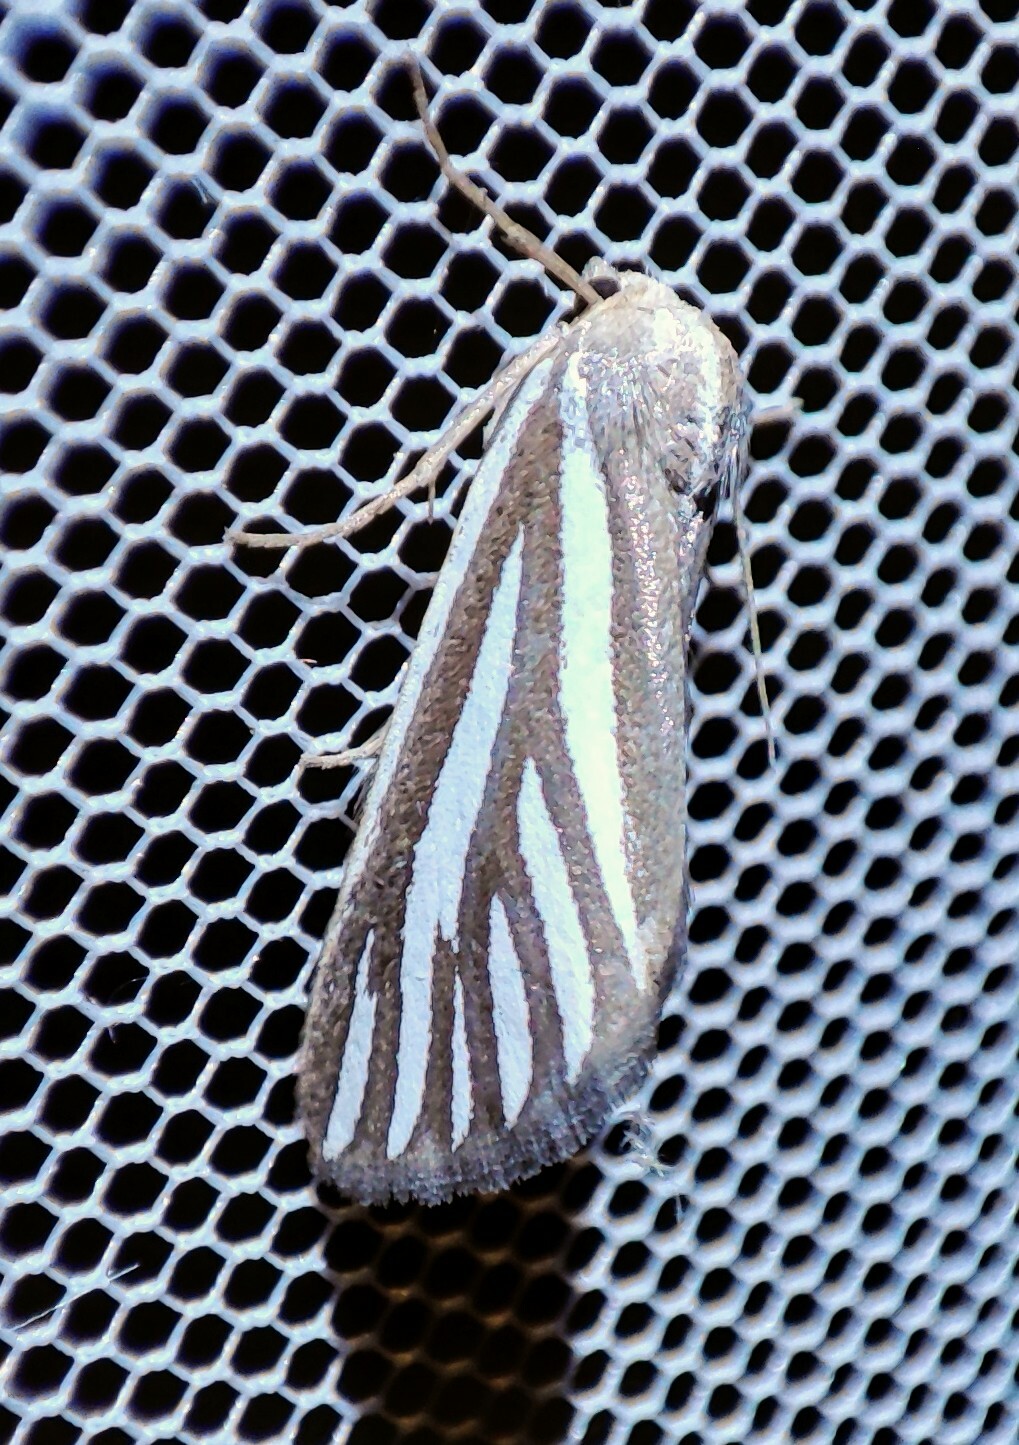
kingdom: Animalia
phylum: Arthropoda
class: Insecta
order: Lepidoptera
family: Geometridae
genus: Pseudomaenas
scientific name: Pseudomaenas alcidata
